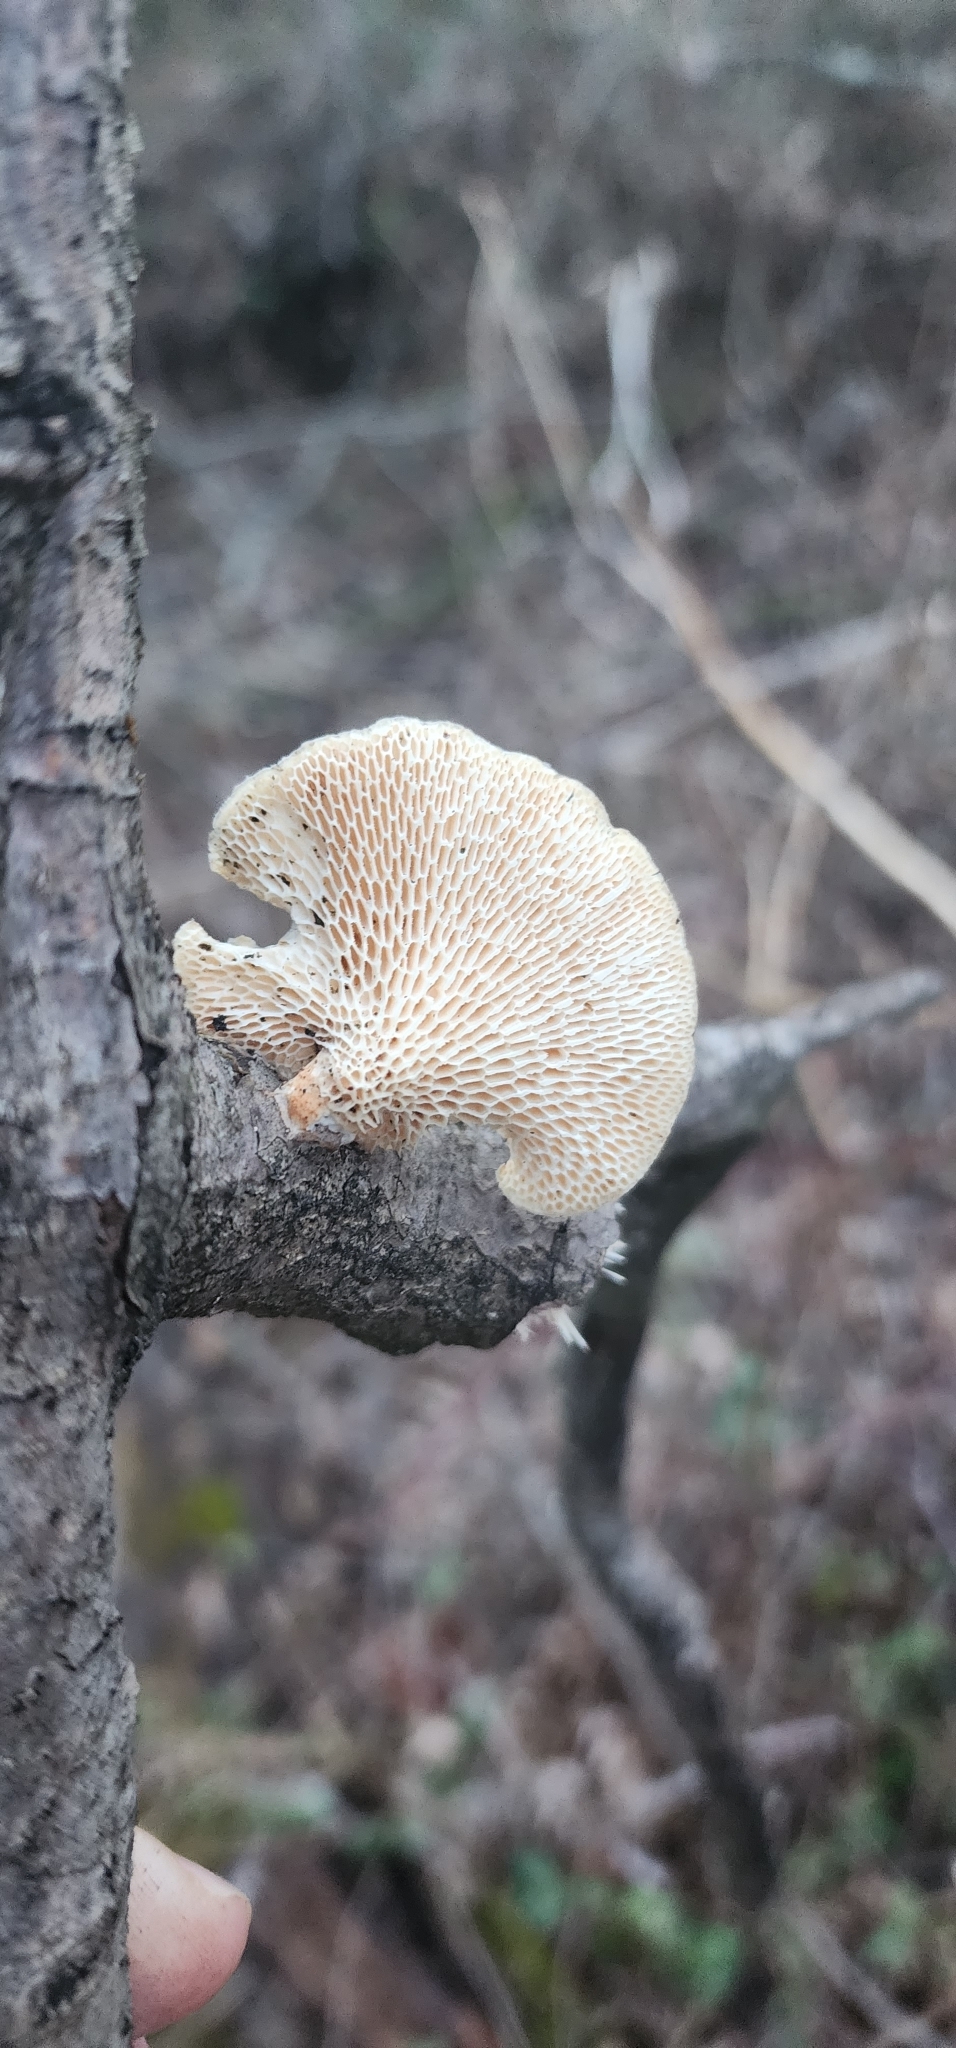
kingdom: Fungi
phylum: Basidiomycota
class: Agaricomycetes
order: Polyporales
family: Polyporaceae
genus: Neofavolus
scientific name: Neofavolus americanus
